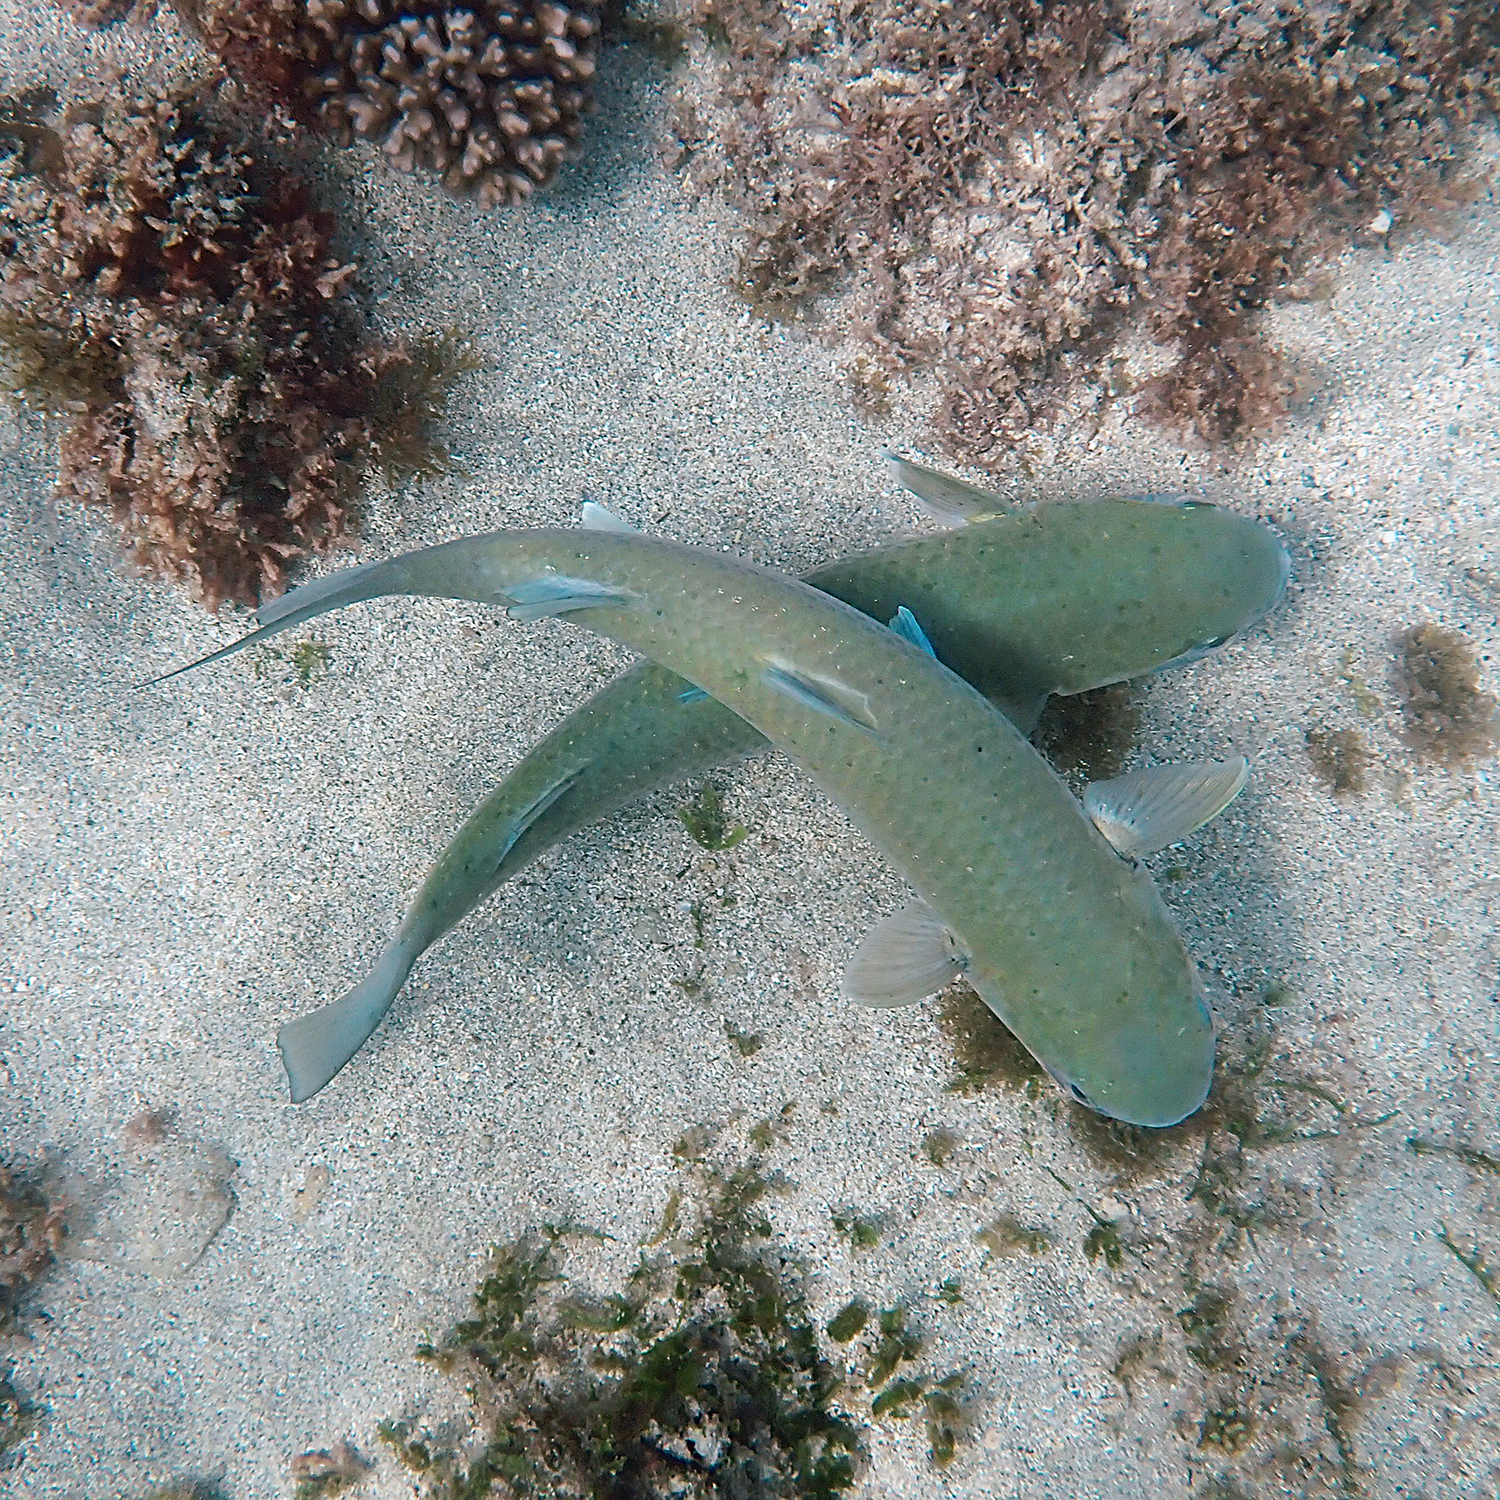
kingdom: Animalia
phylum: Chordata
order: Mugiliformes
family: Mugilidae
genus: Mugil
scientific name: Mugil cephalus
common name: Grey mullet
